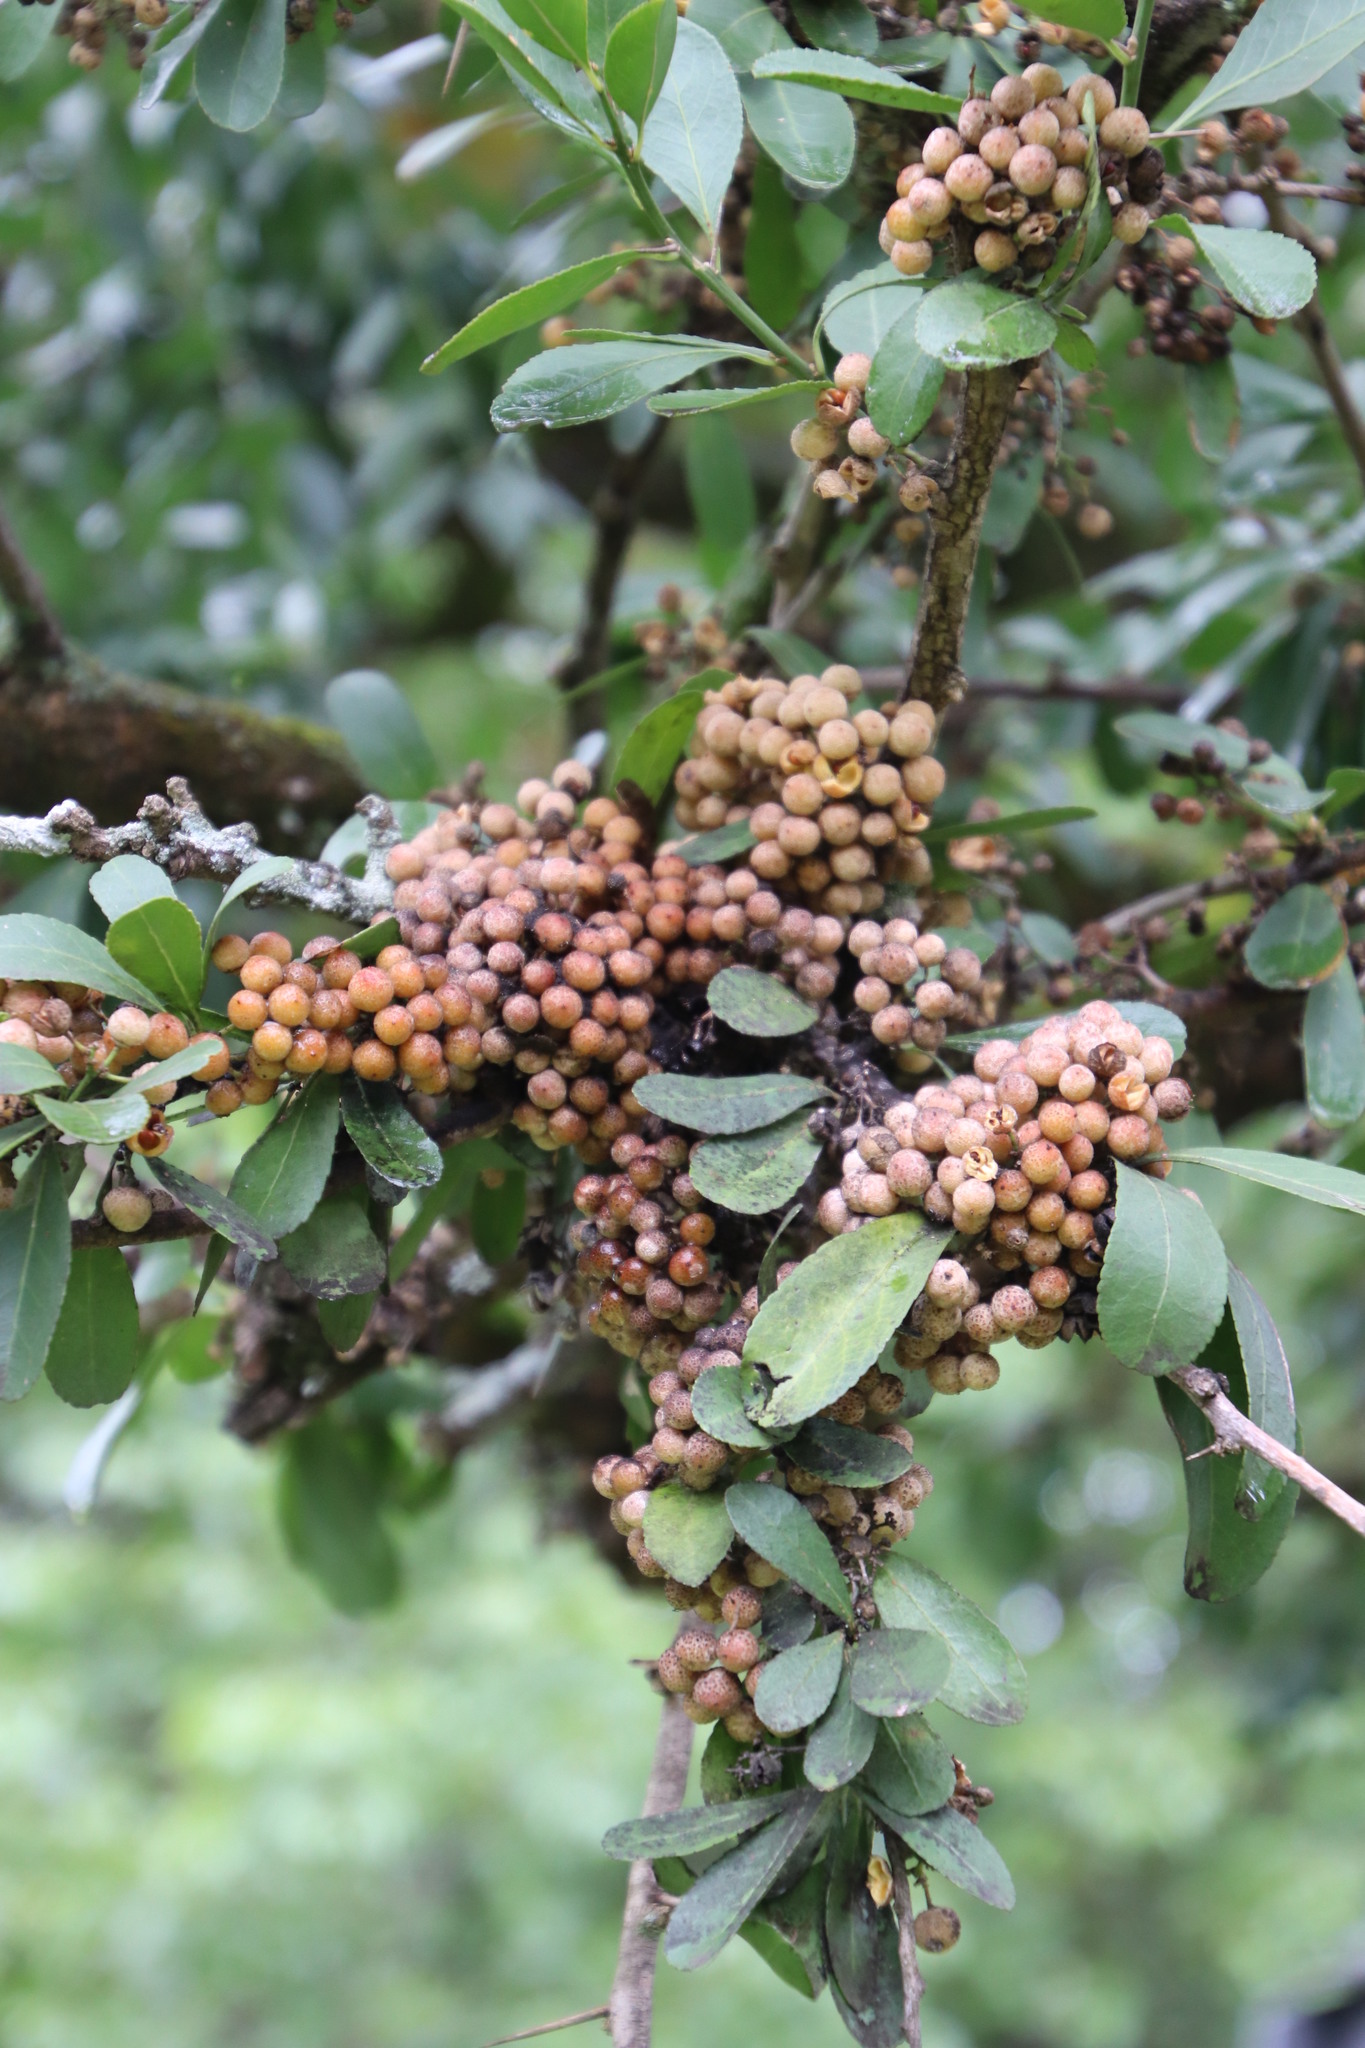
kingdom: Plantae
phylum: Tracheophyta
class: Magnoliopsida
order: Celastrales
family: Celastraceae
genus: Gymnosporia
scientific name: Gymnosporia buxifolia
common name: Common spike-thorn
